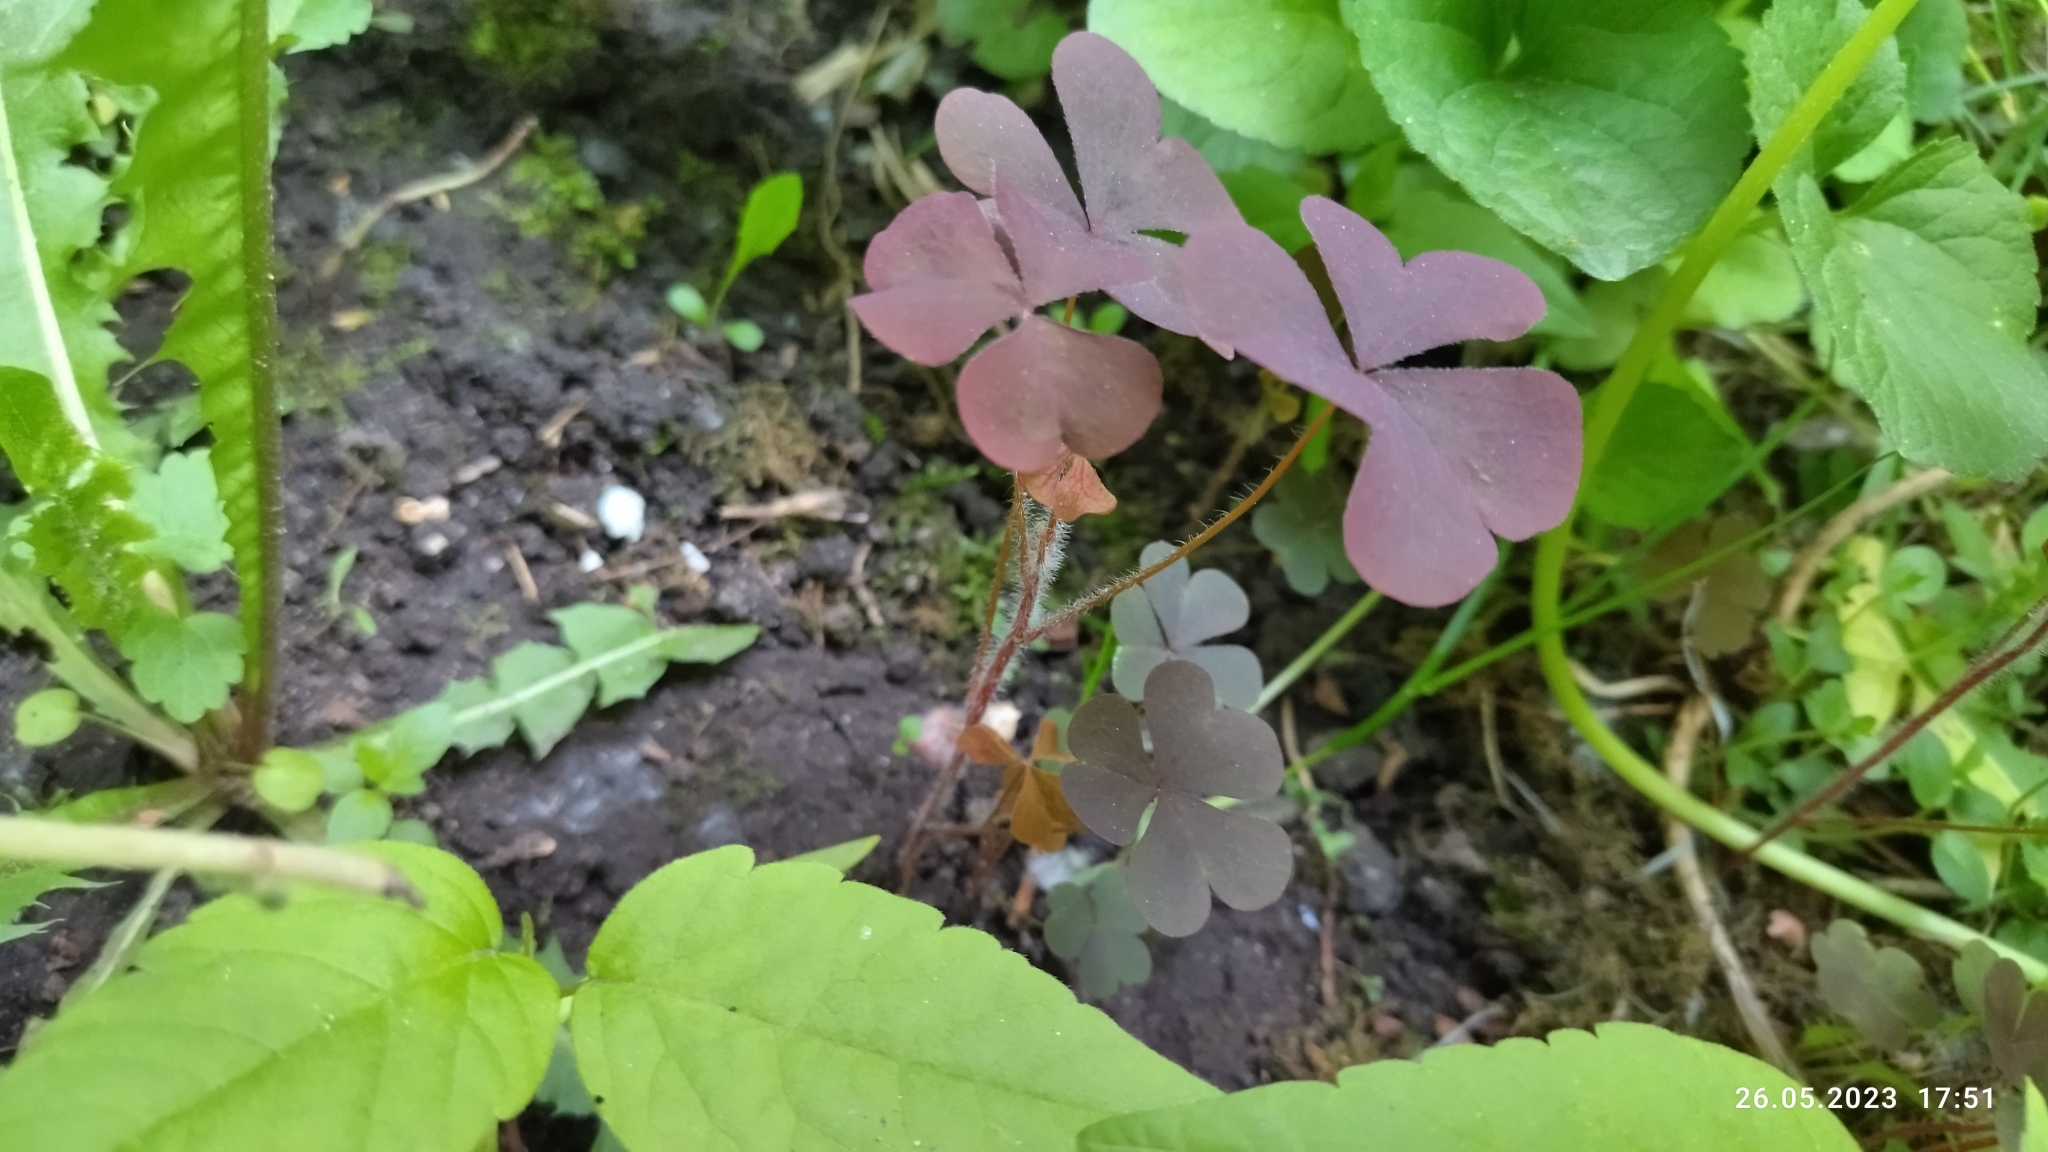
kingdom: Plantae
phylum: Tracheophyta
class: Magnoliopsida
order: Oxalidales
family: Oxalidaceae
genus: Oxalis
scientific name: Oxalis stricta
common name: Upright yellow-sorrel
